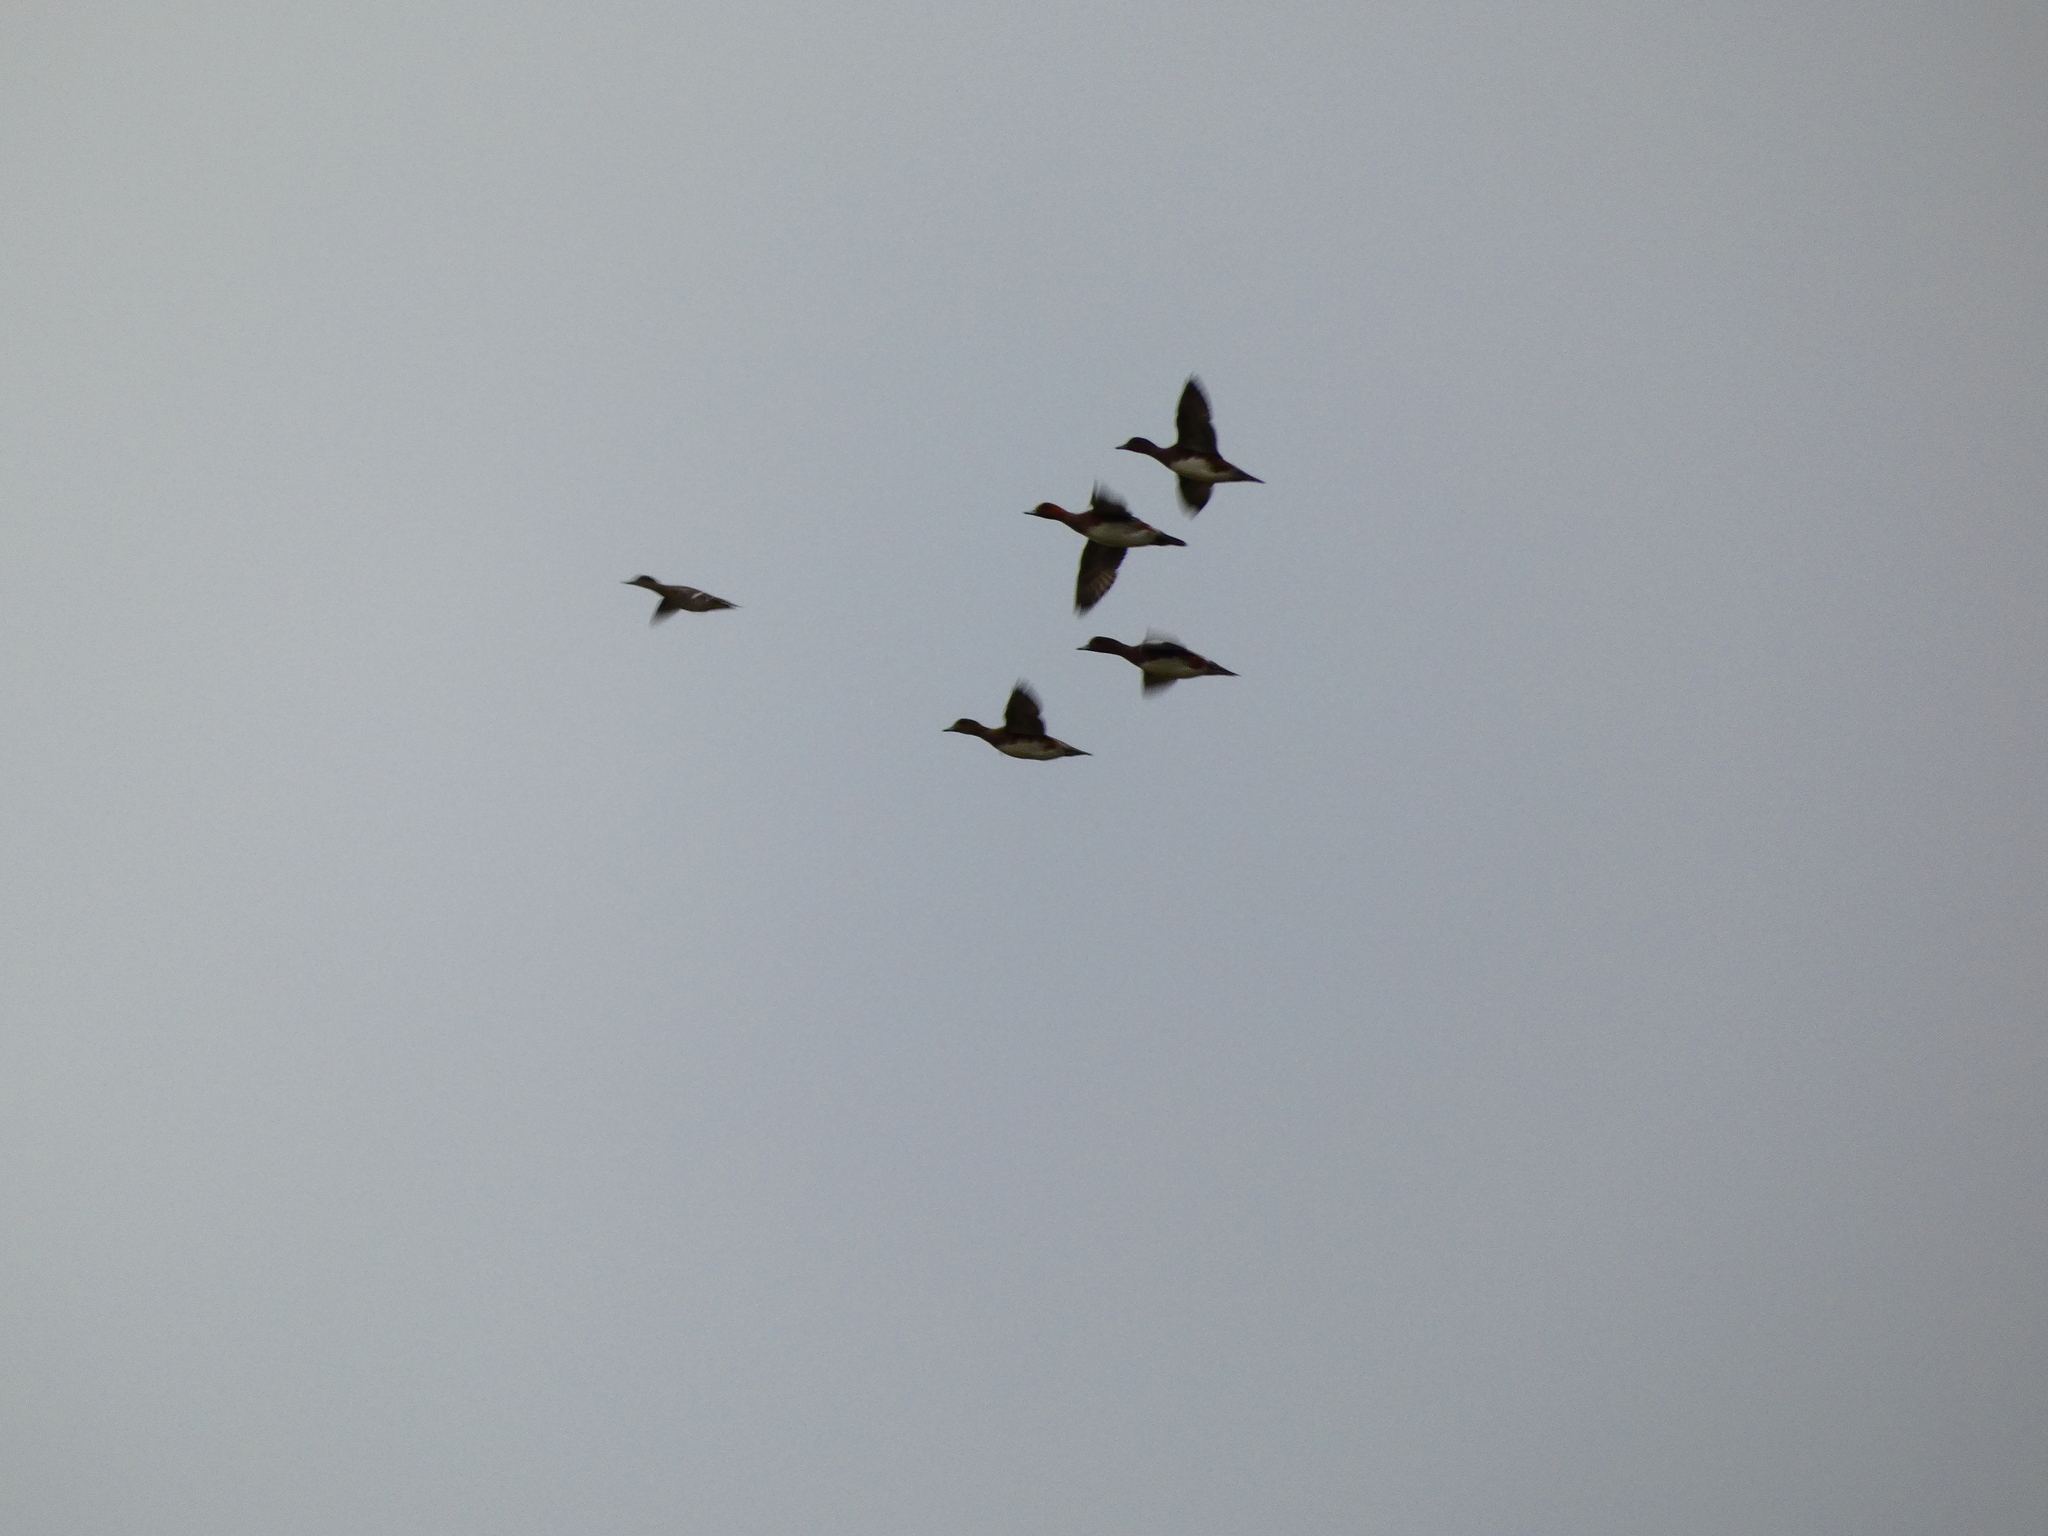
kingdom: Animalia
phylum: Chordata
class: Aves
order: Anseriformes
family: Anatidae
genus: Mareca
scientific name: Mareca penelope
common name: Eurasian wigeon
